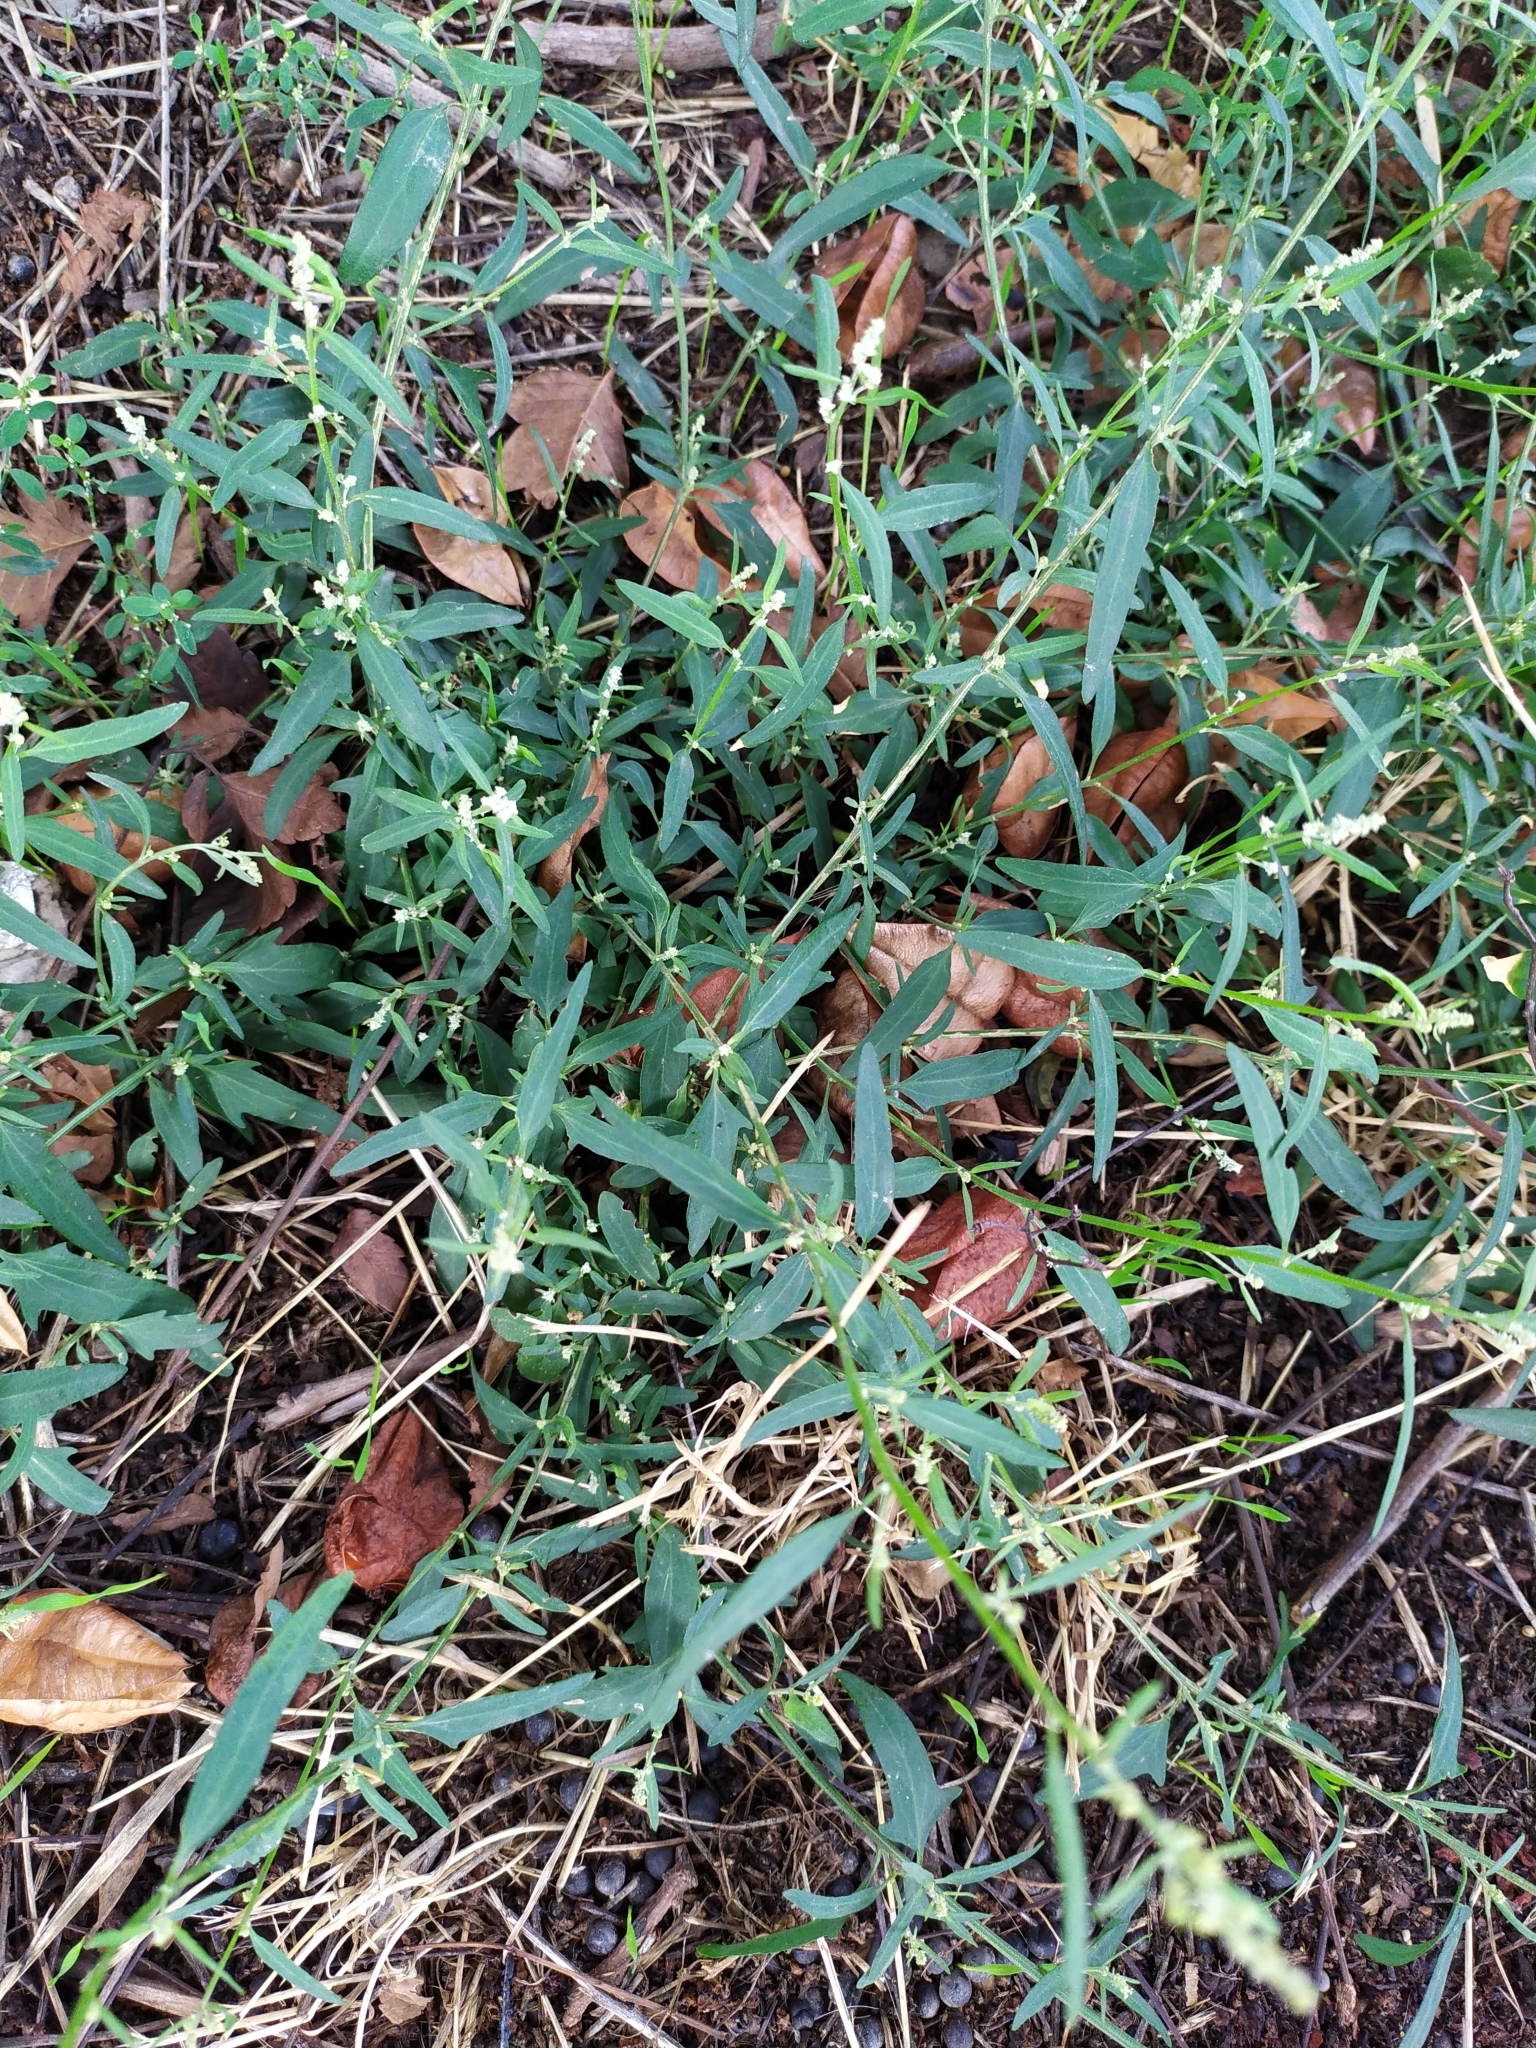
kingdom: Plantae
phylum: Tracheophyta
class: Magnoliopsida
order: Caryophyllales
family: Amaranthaceae
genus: Atriplex
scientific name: Atriplex patula
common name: Common orache
